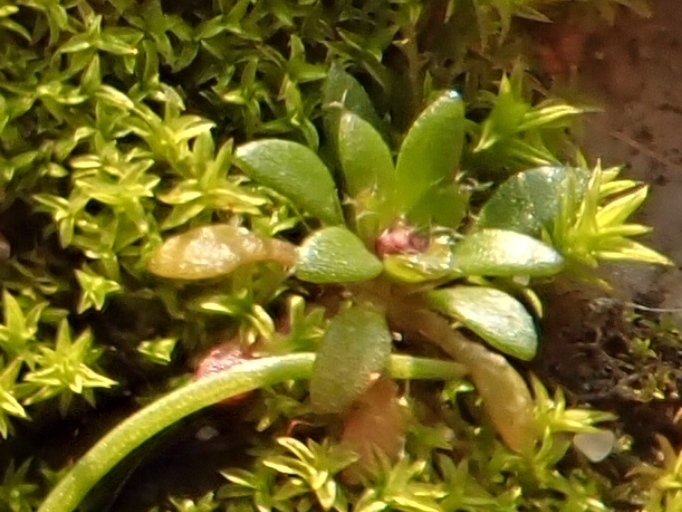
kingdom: Plantae
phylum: Tracheophyta
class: Magnoliopsida
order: Brassicales
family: Brassicaceae
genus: Draba
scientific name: Draba verna
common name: Spring draba
